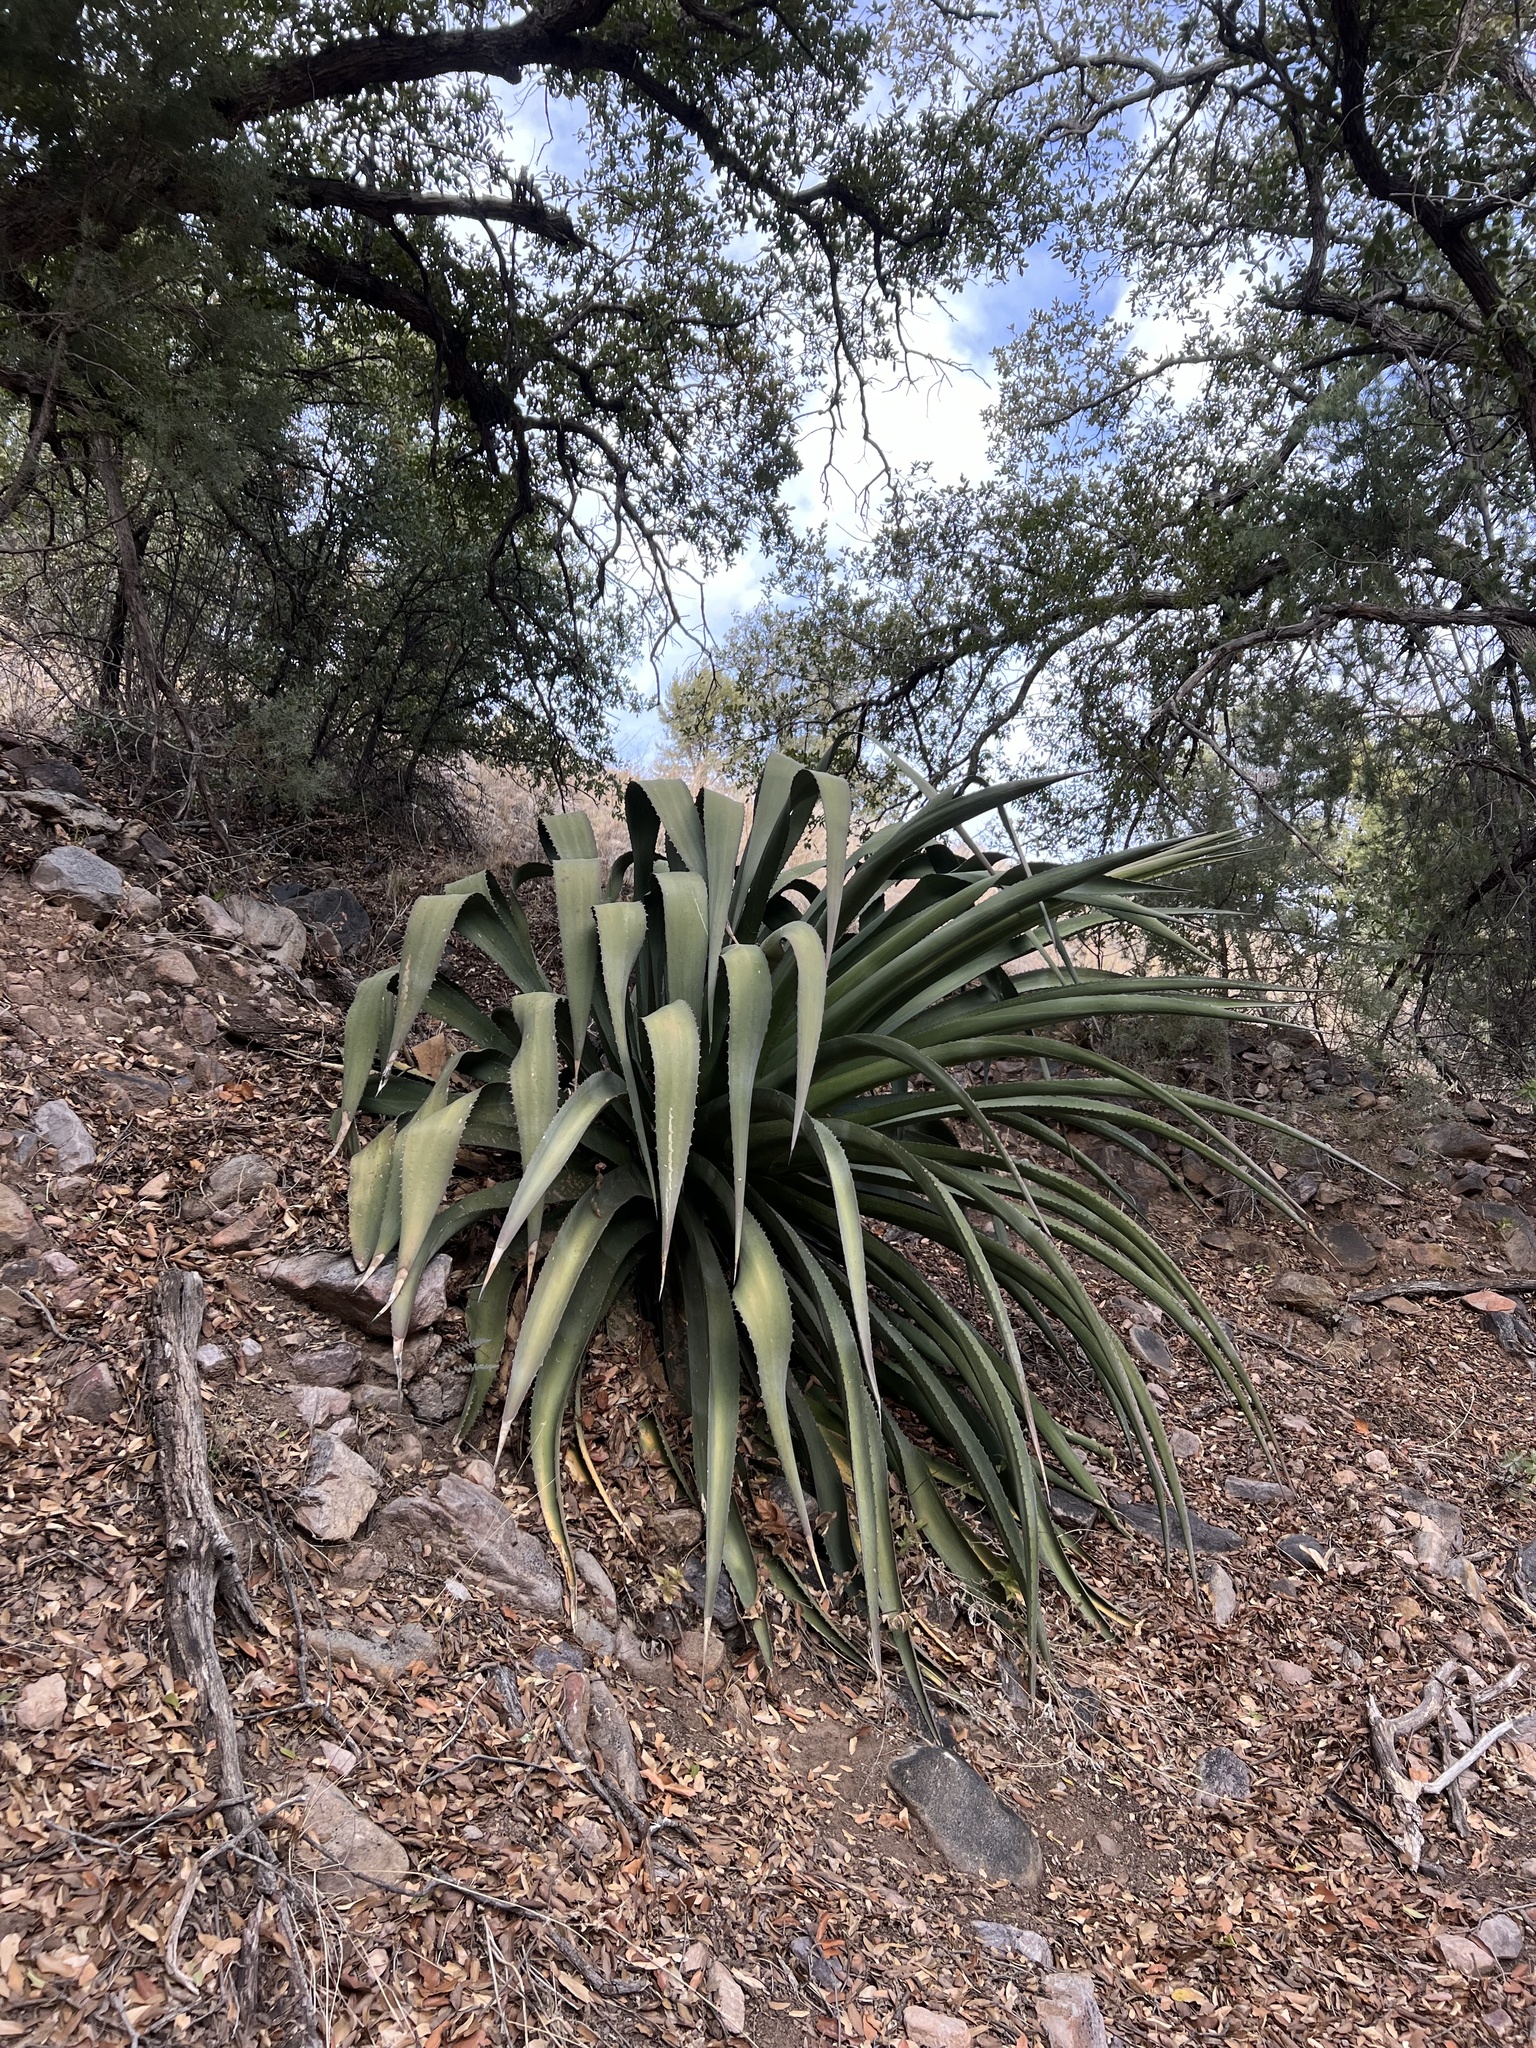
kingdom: Plantae
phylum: Tracheophyta
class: Liliopsida
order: Asparagales
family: Asparagaceae
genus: Agave
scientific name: Agave palmeri
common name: Palmer agave
